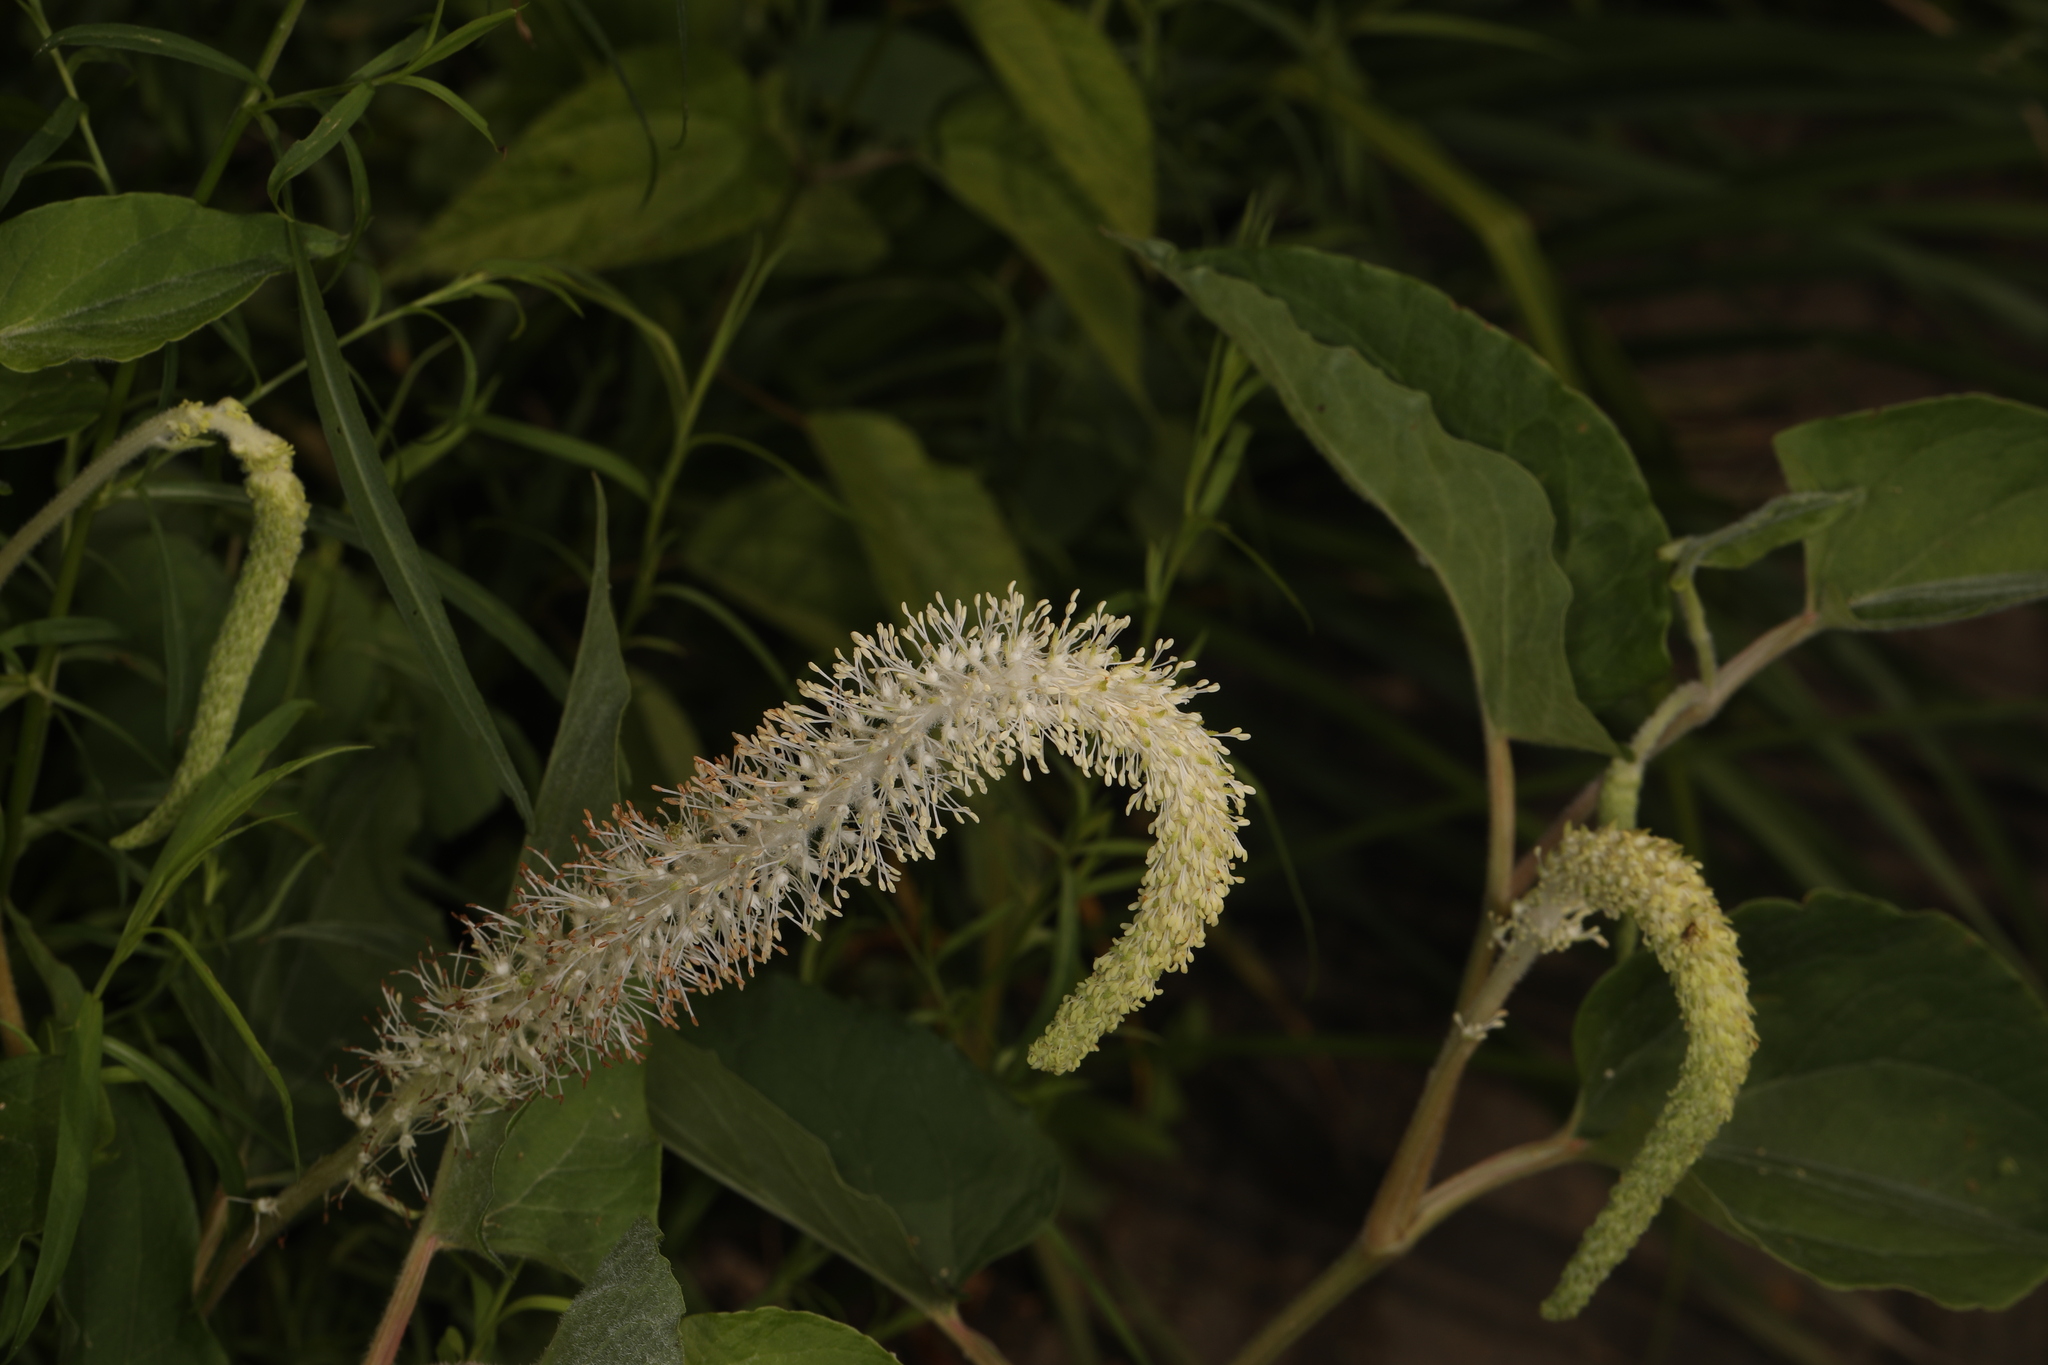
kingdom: Plantae
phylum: Tracheophyta
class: Magnoliopsida
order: Piperales
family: Saururaceae
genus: Saururus
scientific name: Saururus cernuus
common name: Lizard's-tail
